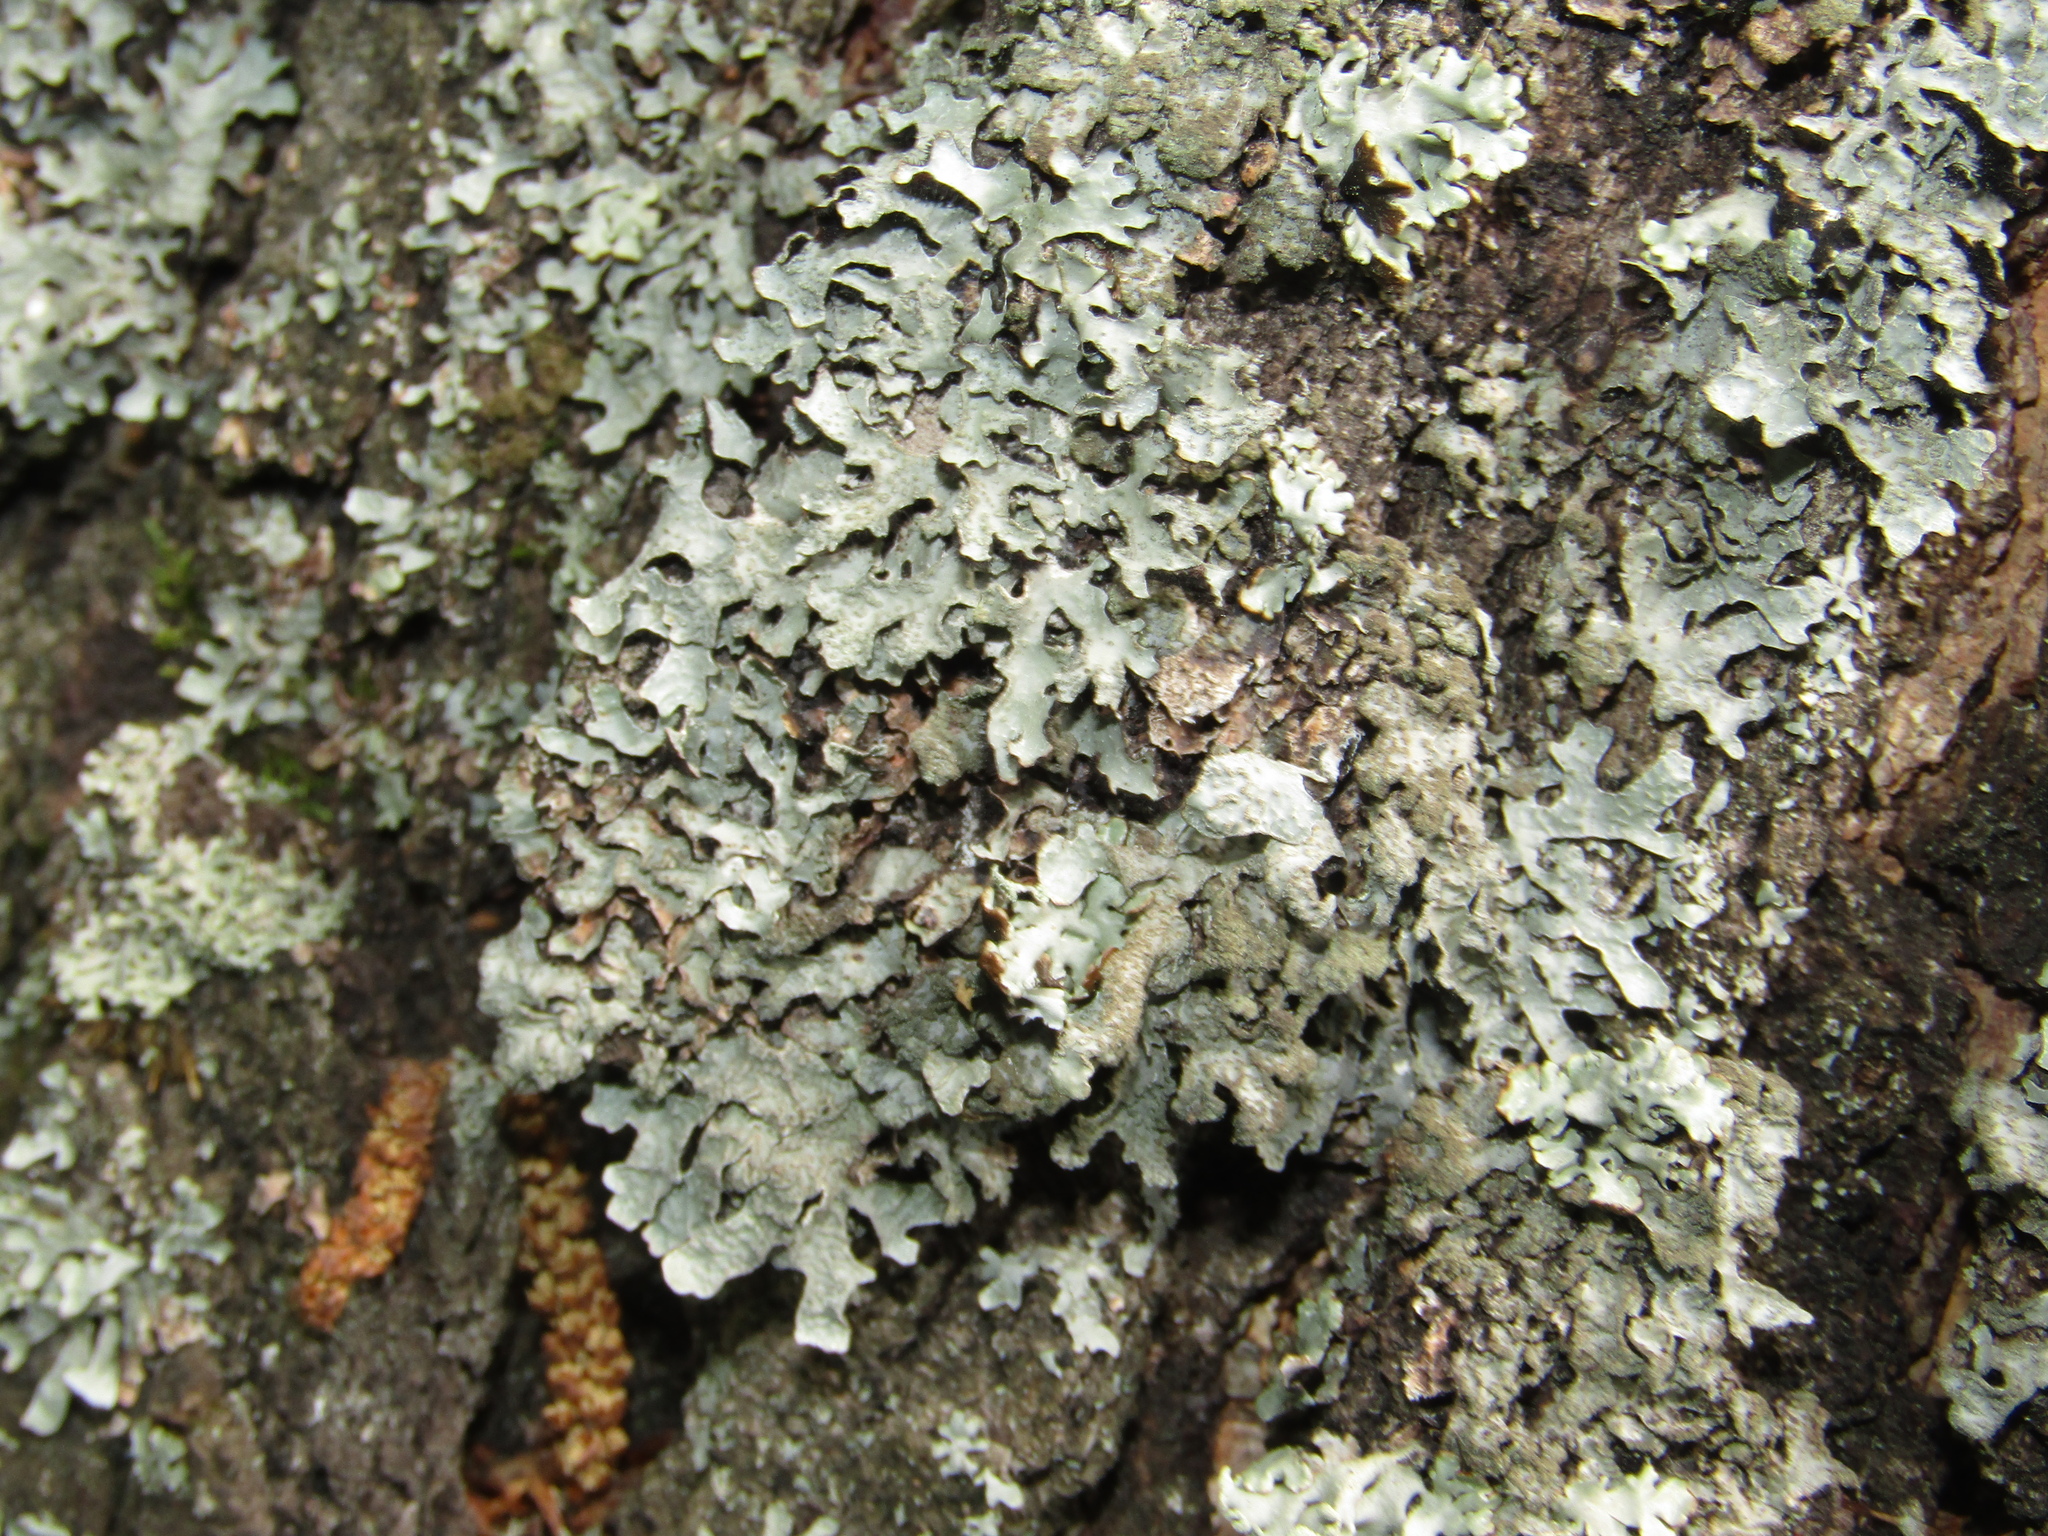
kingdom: Fungi
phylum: Ascomycota
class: Lecanoromycetes
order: Lecanorales
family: Parmeliaceae
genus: Parmelia
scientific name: Parmelia sulcata
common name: Netted shield lichen
